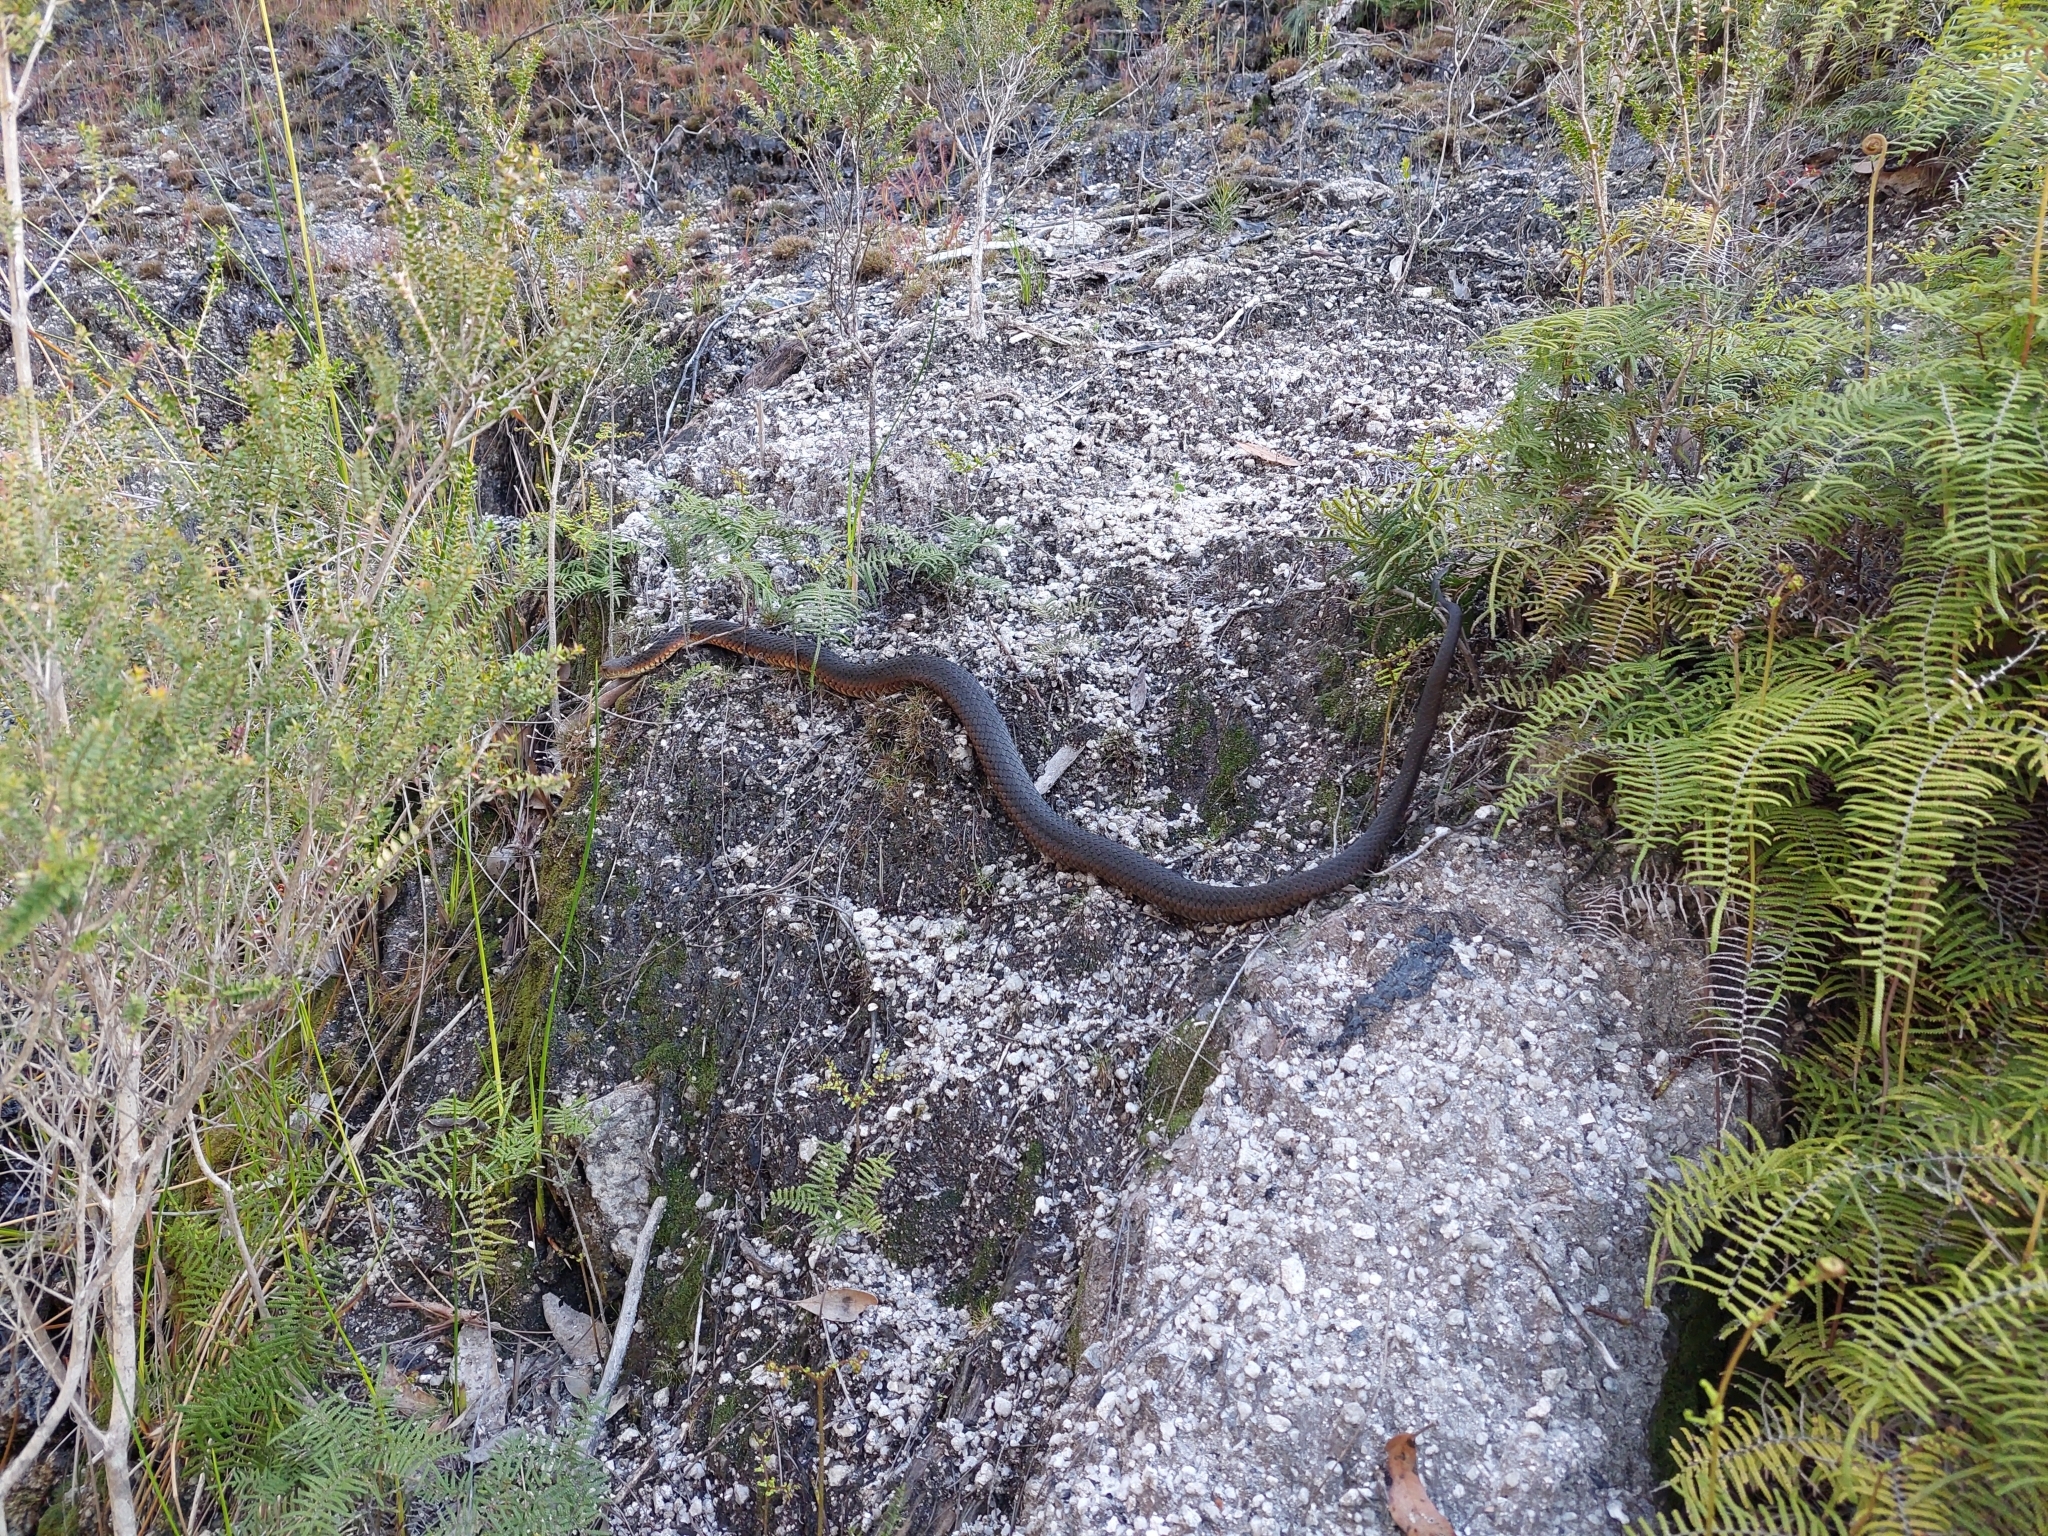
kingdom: Animalia
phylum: Chordata
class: Squamata
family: Elapidae
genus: Austrelaps
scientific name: Austrelaps superbus
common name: Copperhead snake
